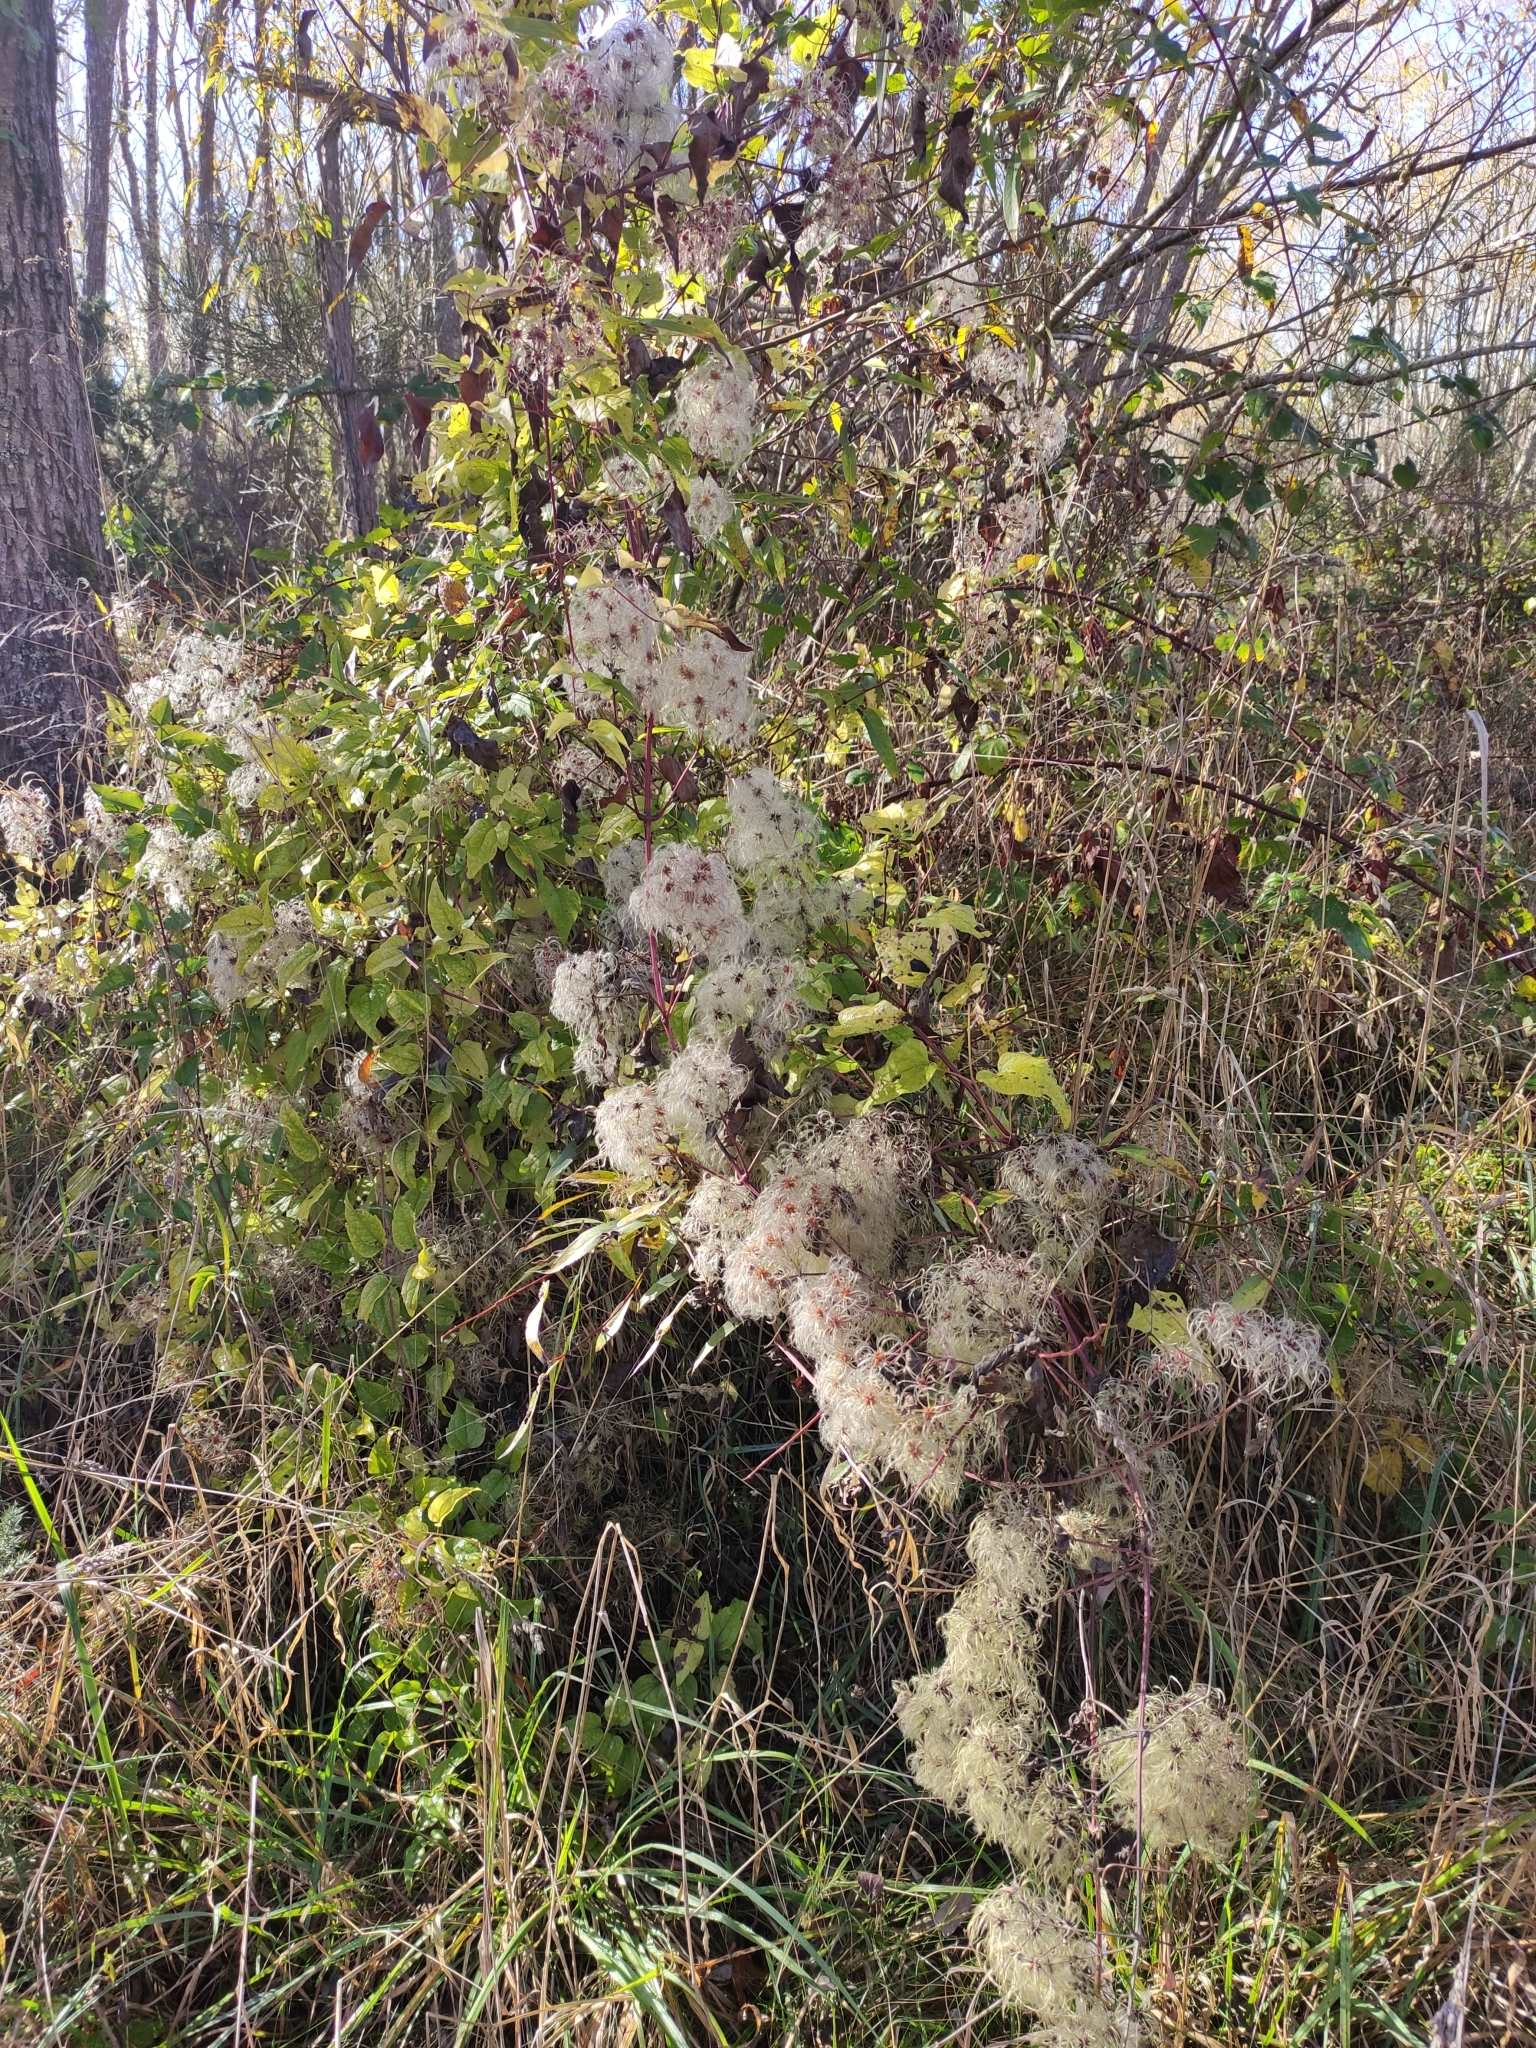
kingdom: Plantae
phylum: Tracheophyta
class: Magnoliopsida
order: Ranunculales
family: Ranunculaceae
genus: Clematis
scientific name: Clematis vitalba
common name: Evergreen clematis
